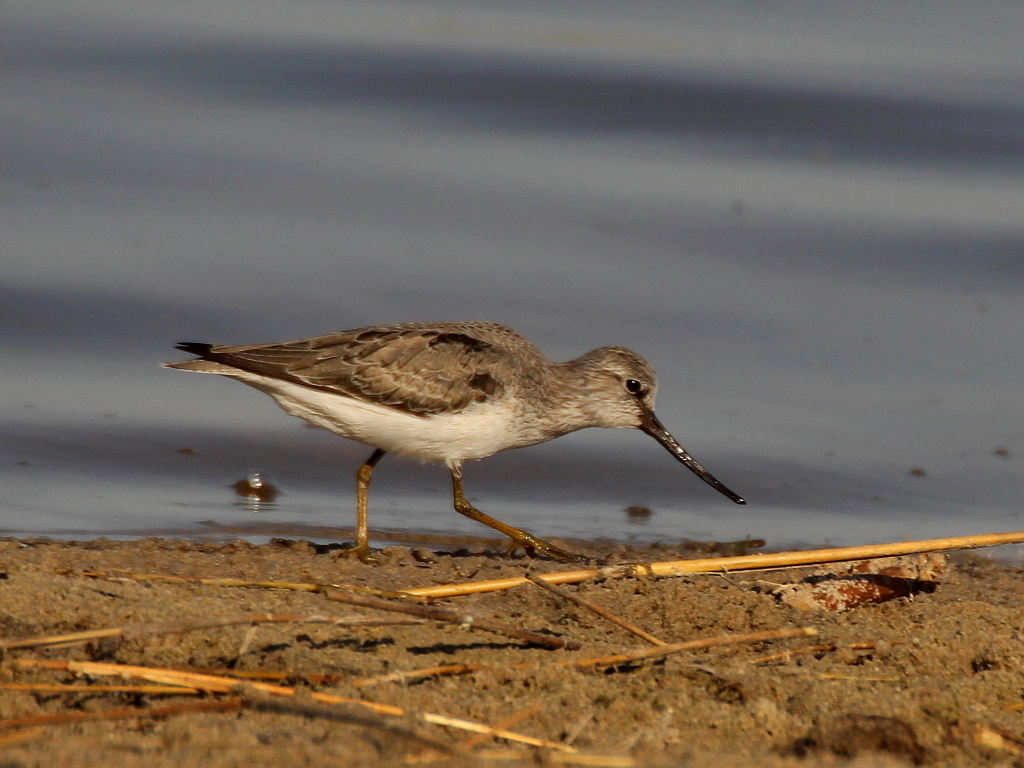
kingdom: Animalia
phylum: Chordata
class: Aves
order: Charadriiformes
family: Scolopacidae
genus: Xenus
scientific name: Xenus cinereus
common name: Terek sandpiper
